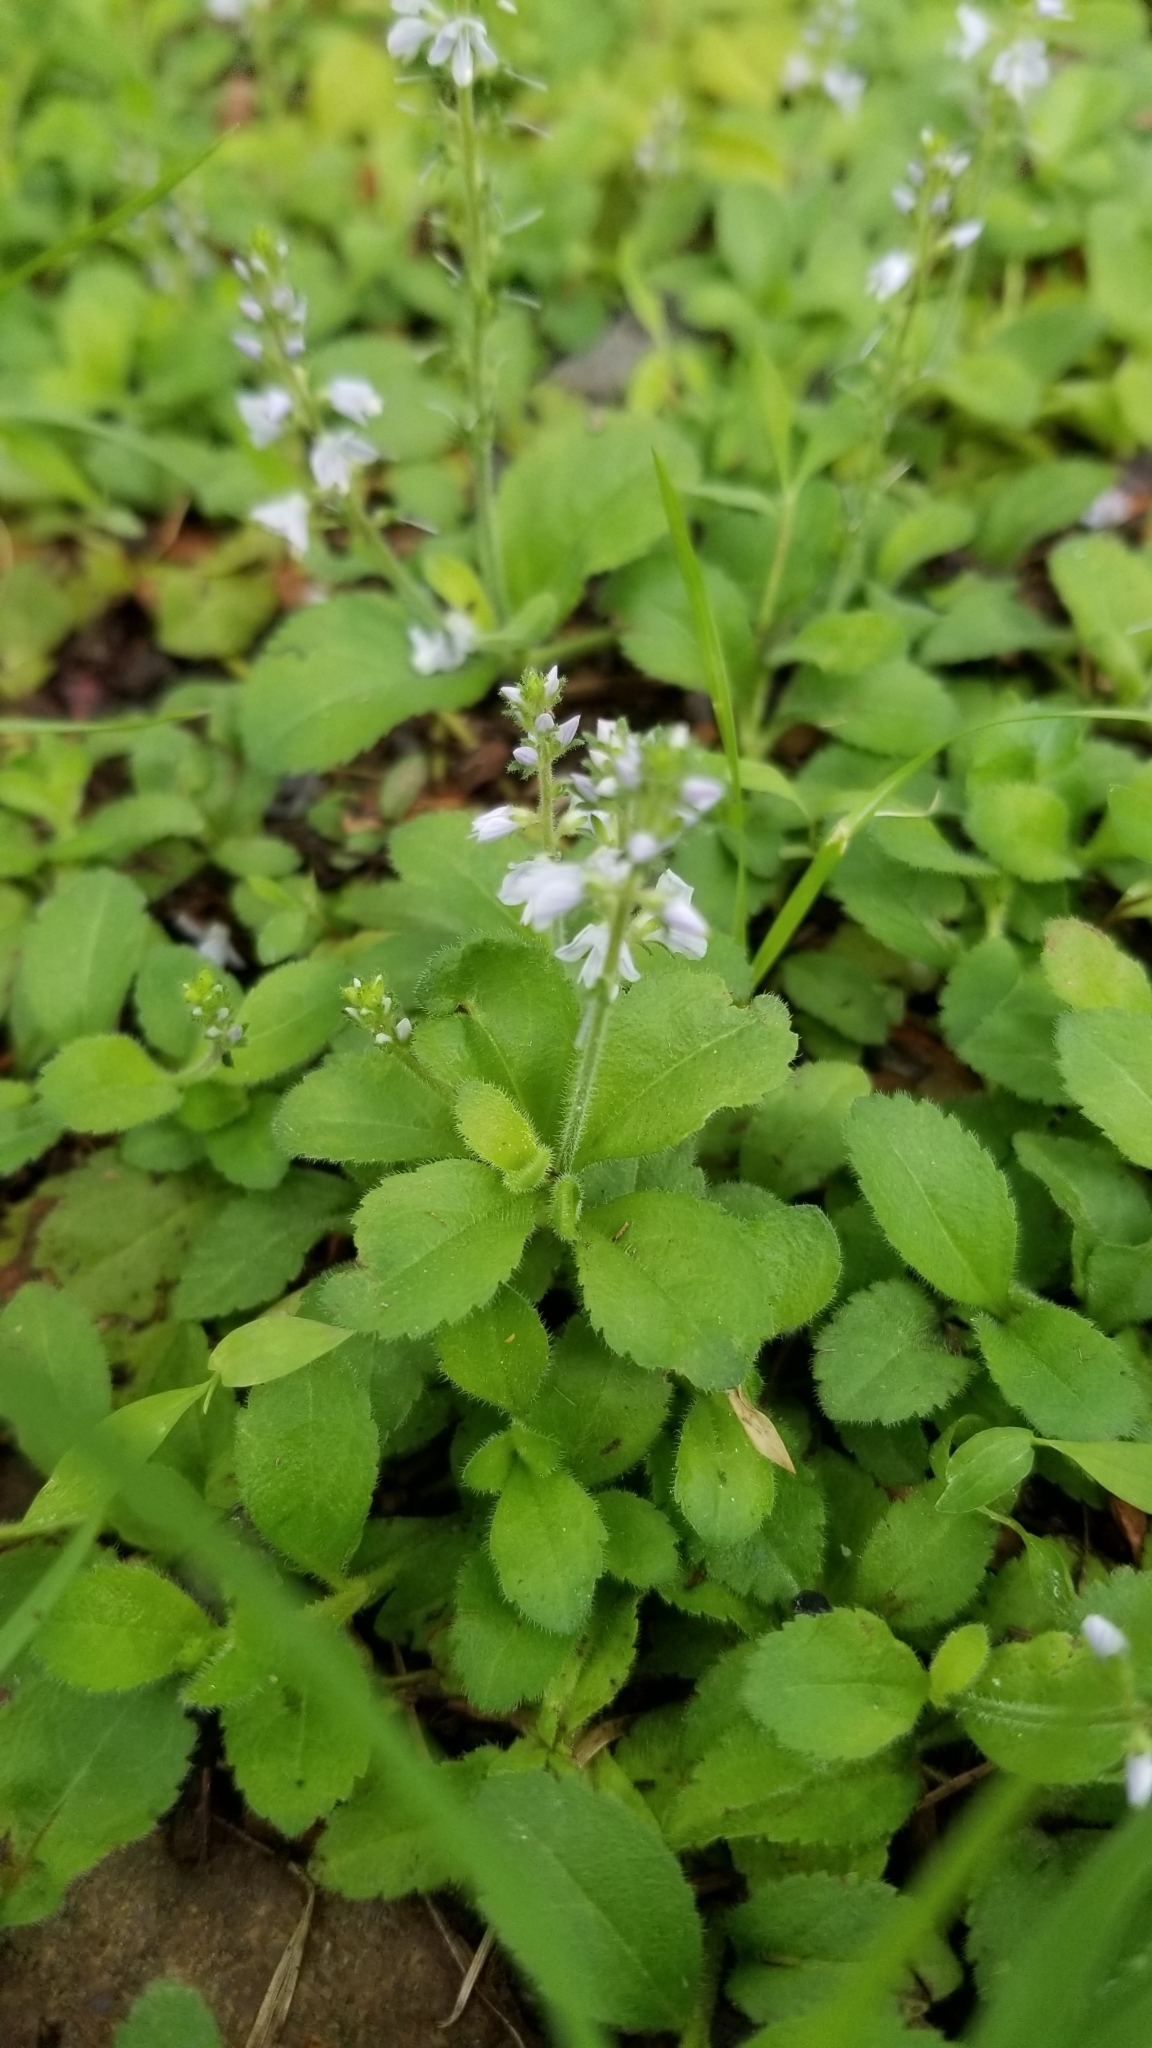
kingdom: Plantae
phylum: Tracheophyta
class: Magnoliopsida
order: Lamiales
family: Plantaginaceae
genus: Veronica
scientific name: Veronica officinalis
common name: Common speedwell
